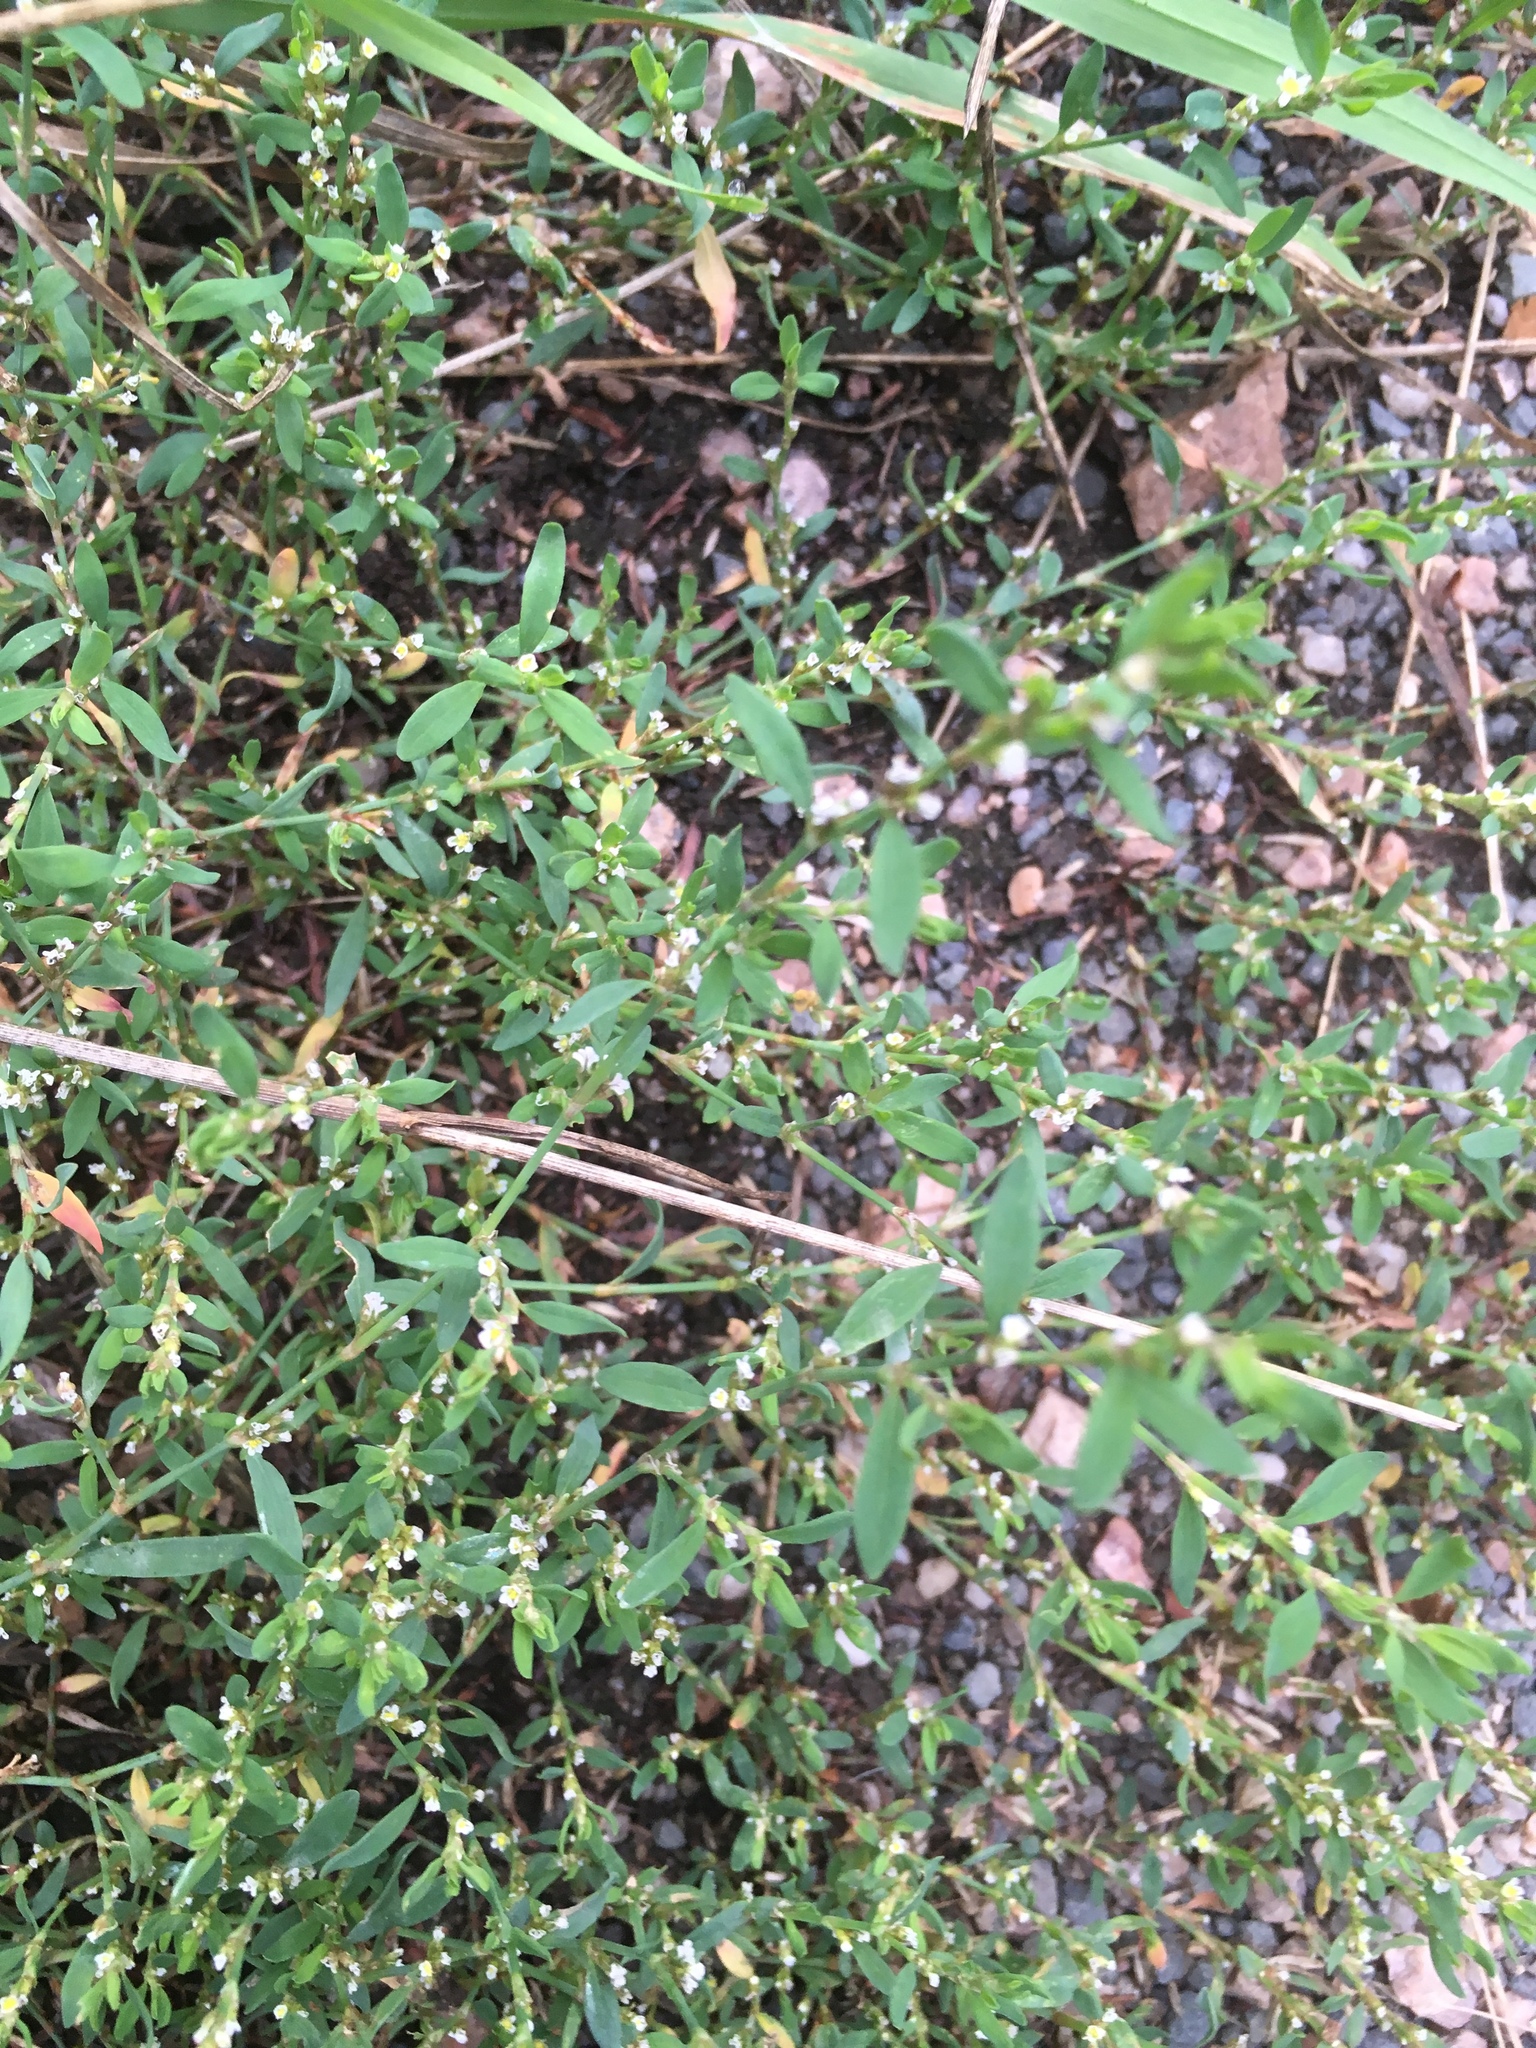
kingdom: Plantae
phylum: Tracheophyta
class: Magnoliopsida
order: Caryophyllales
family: Polygonaceae
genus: Polygonum
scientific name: Polygonum aviculare
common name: Prostrate knotweed
